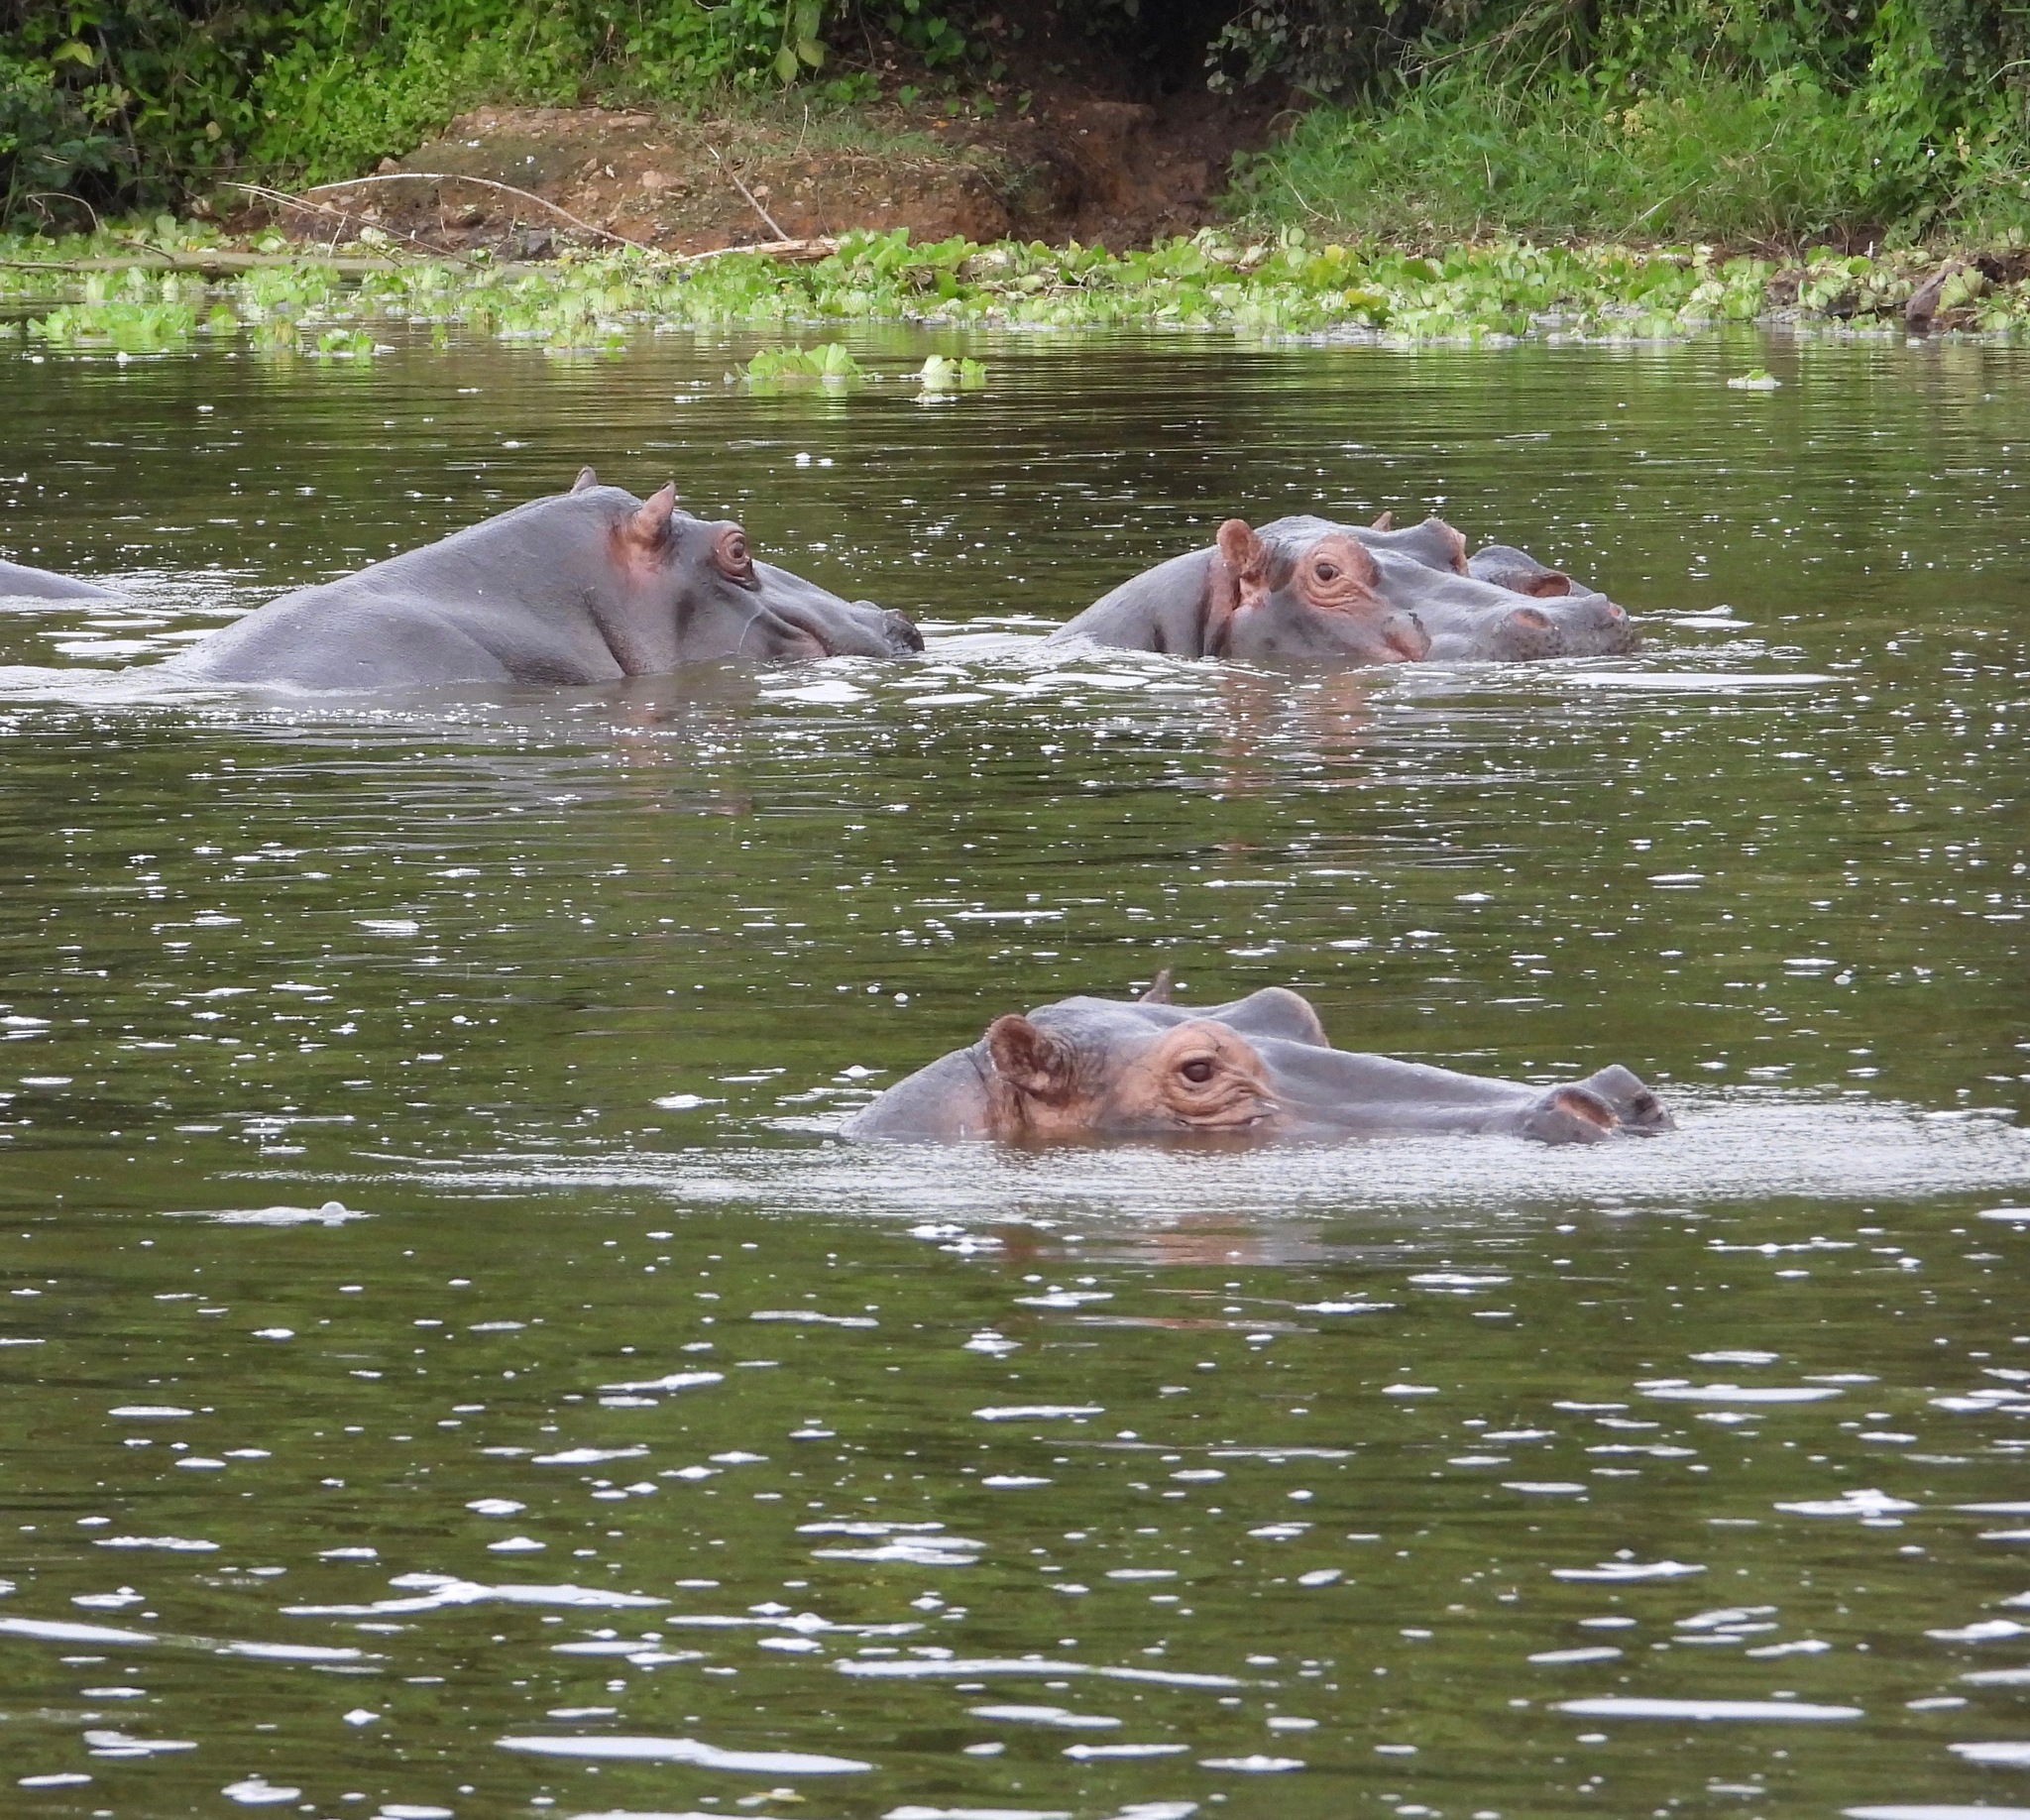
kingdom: Animalia
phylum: Chordata
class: Mammalia
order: Artiodactyla
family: Hippopotamidae
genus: Hippopotamus
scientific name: Hippopotamus amphibius
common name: Common hippopotamus
